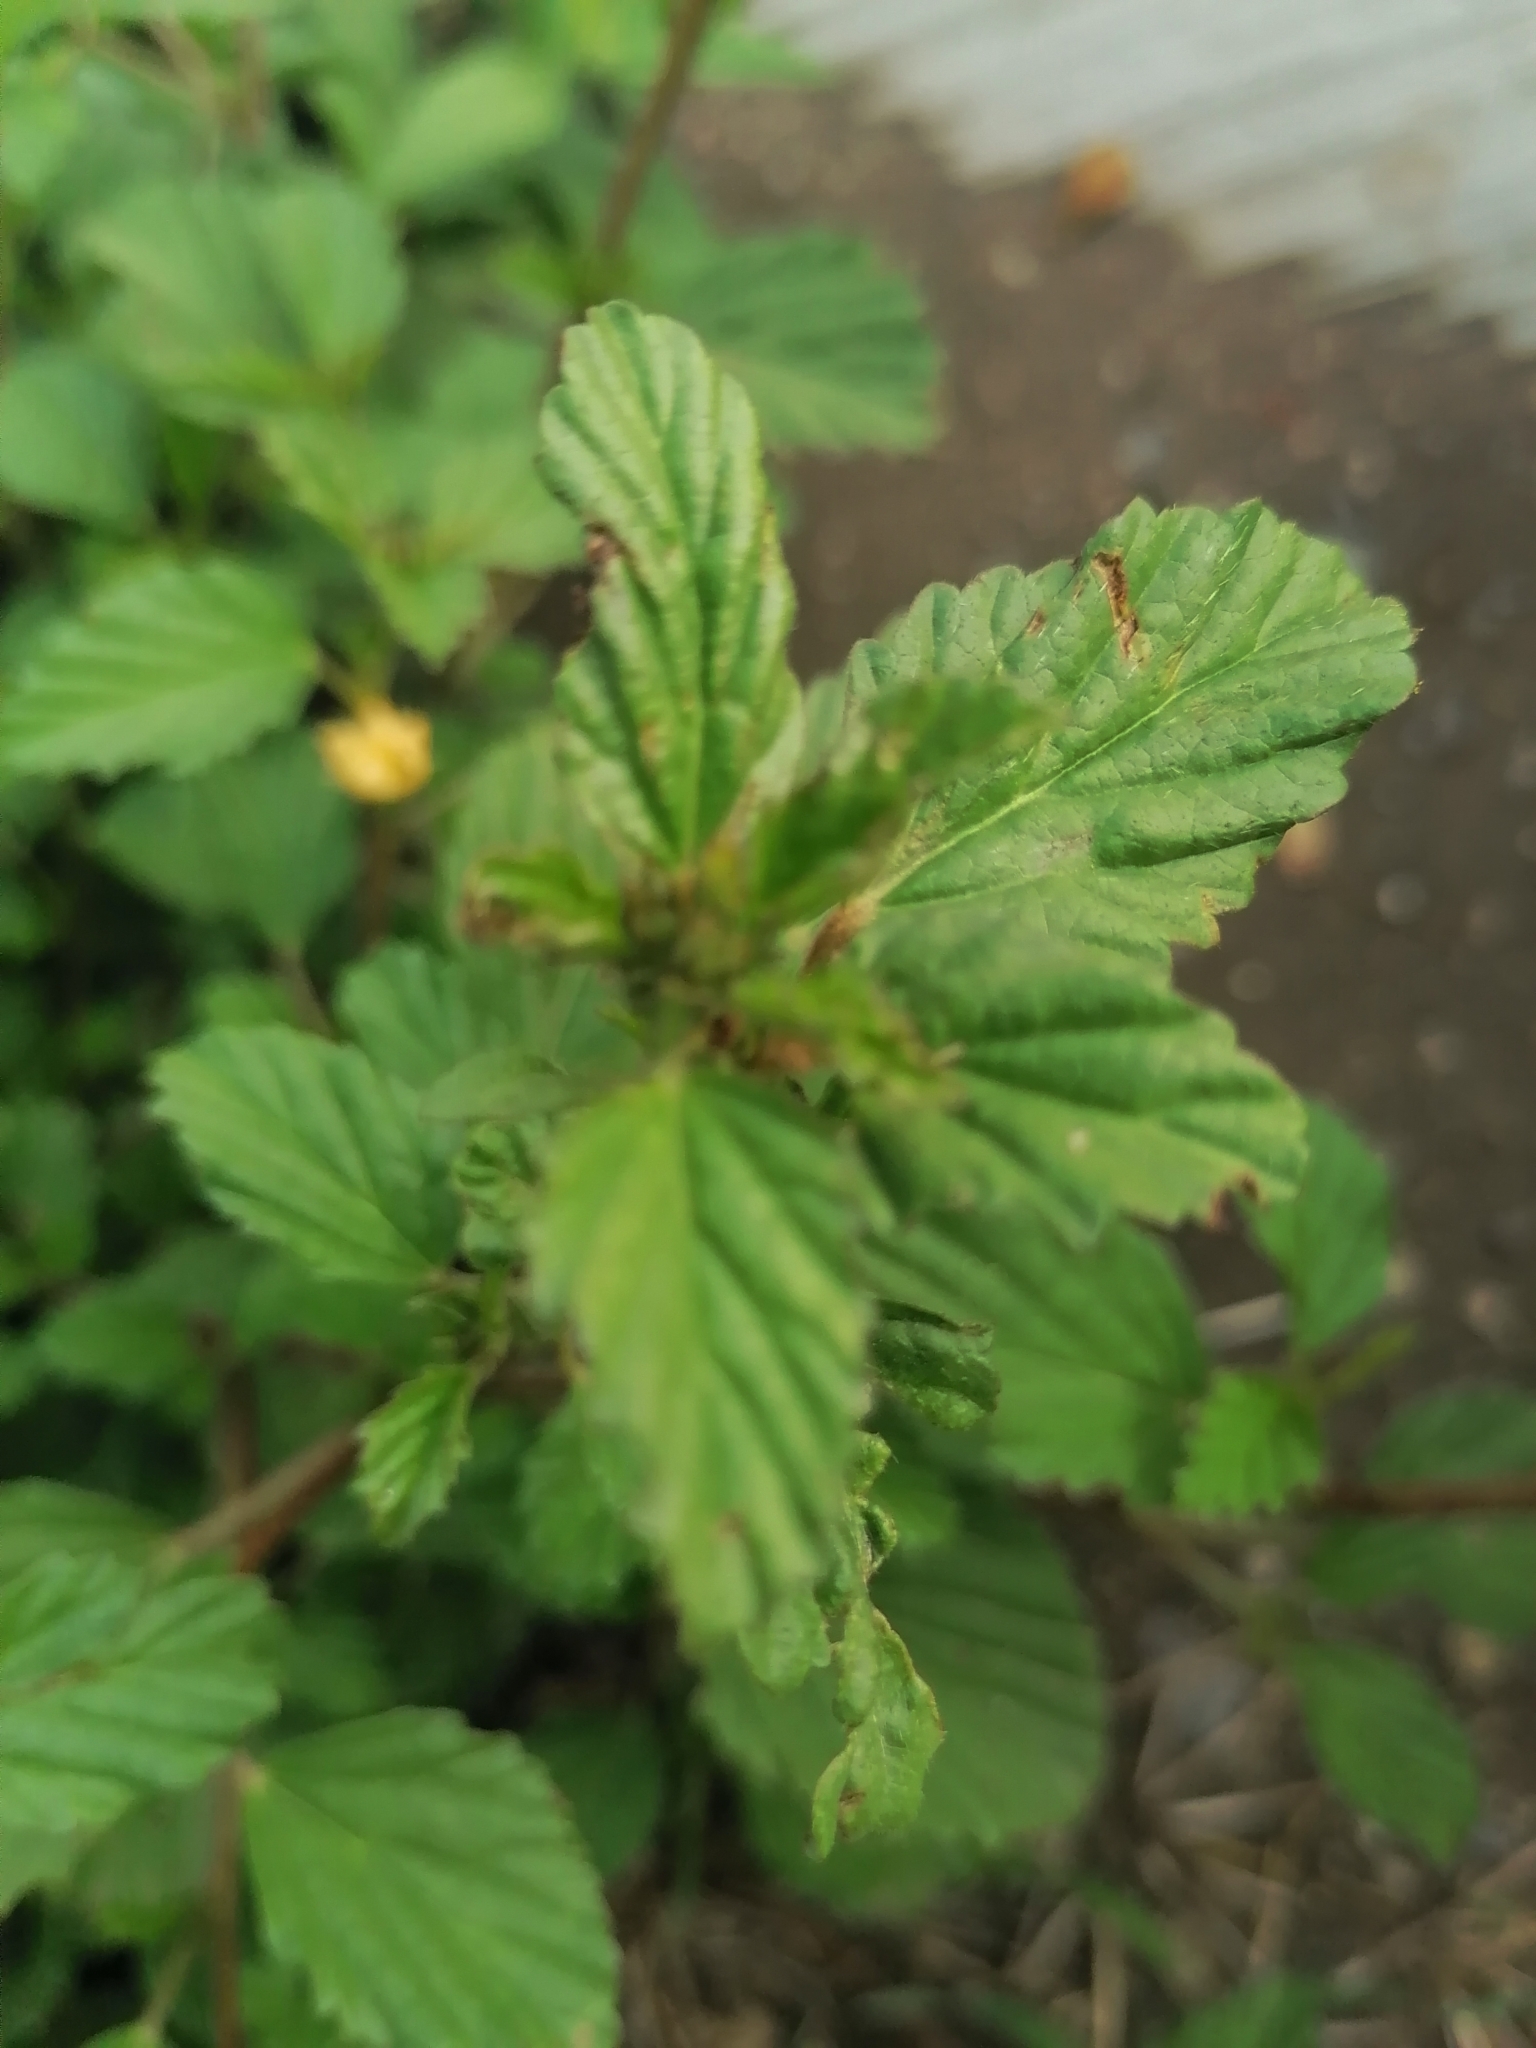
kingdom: Plantae
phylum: Tracheophyta
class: Magnoliopsida
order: Malvales
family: Malvaceae
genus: Malvastrum
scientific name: Malvastrum coromandelianum
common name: Threelobe false mallow
